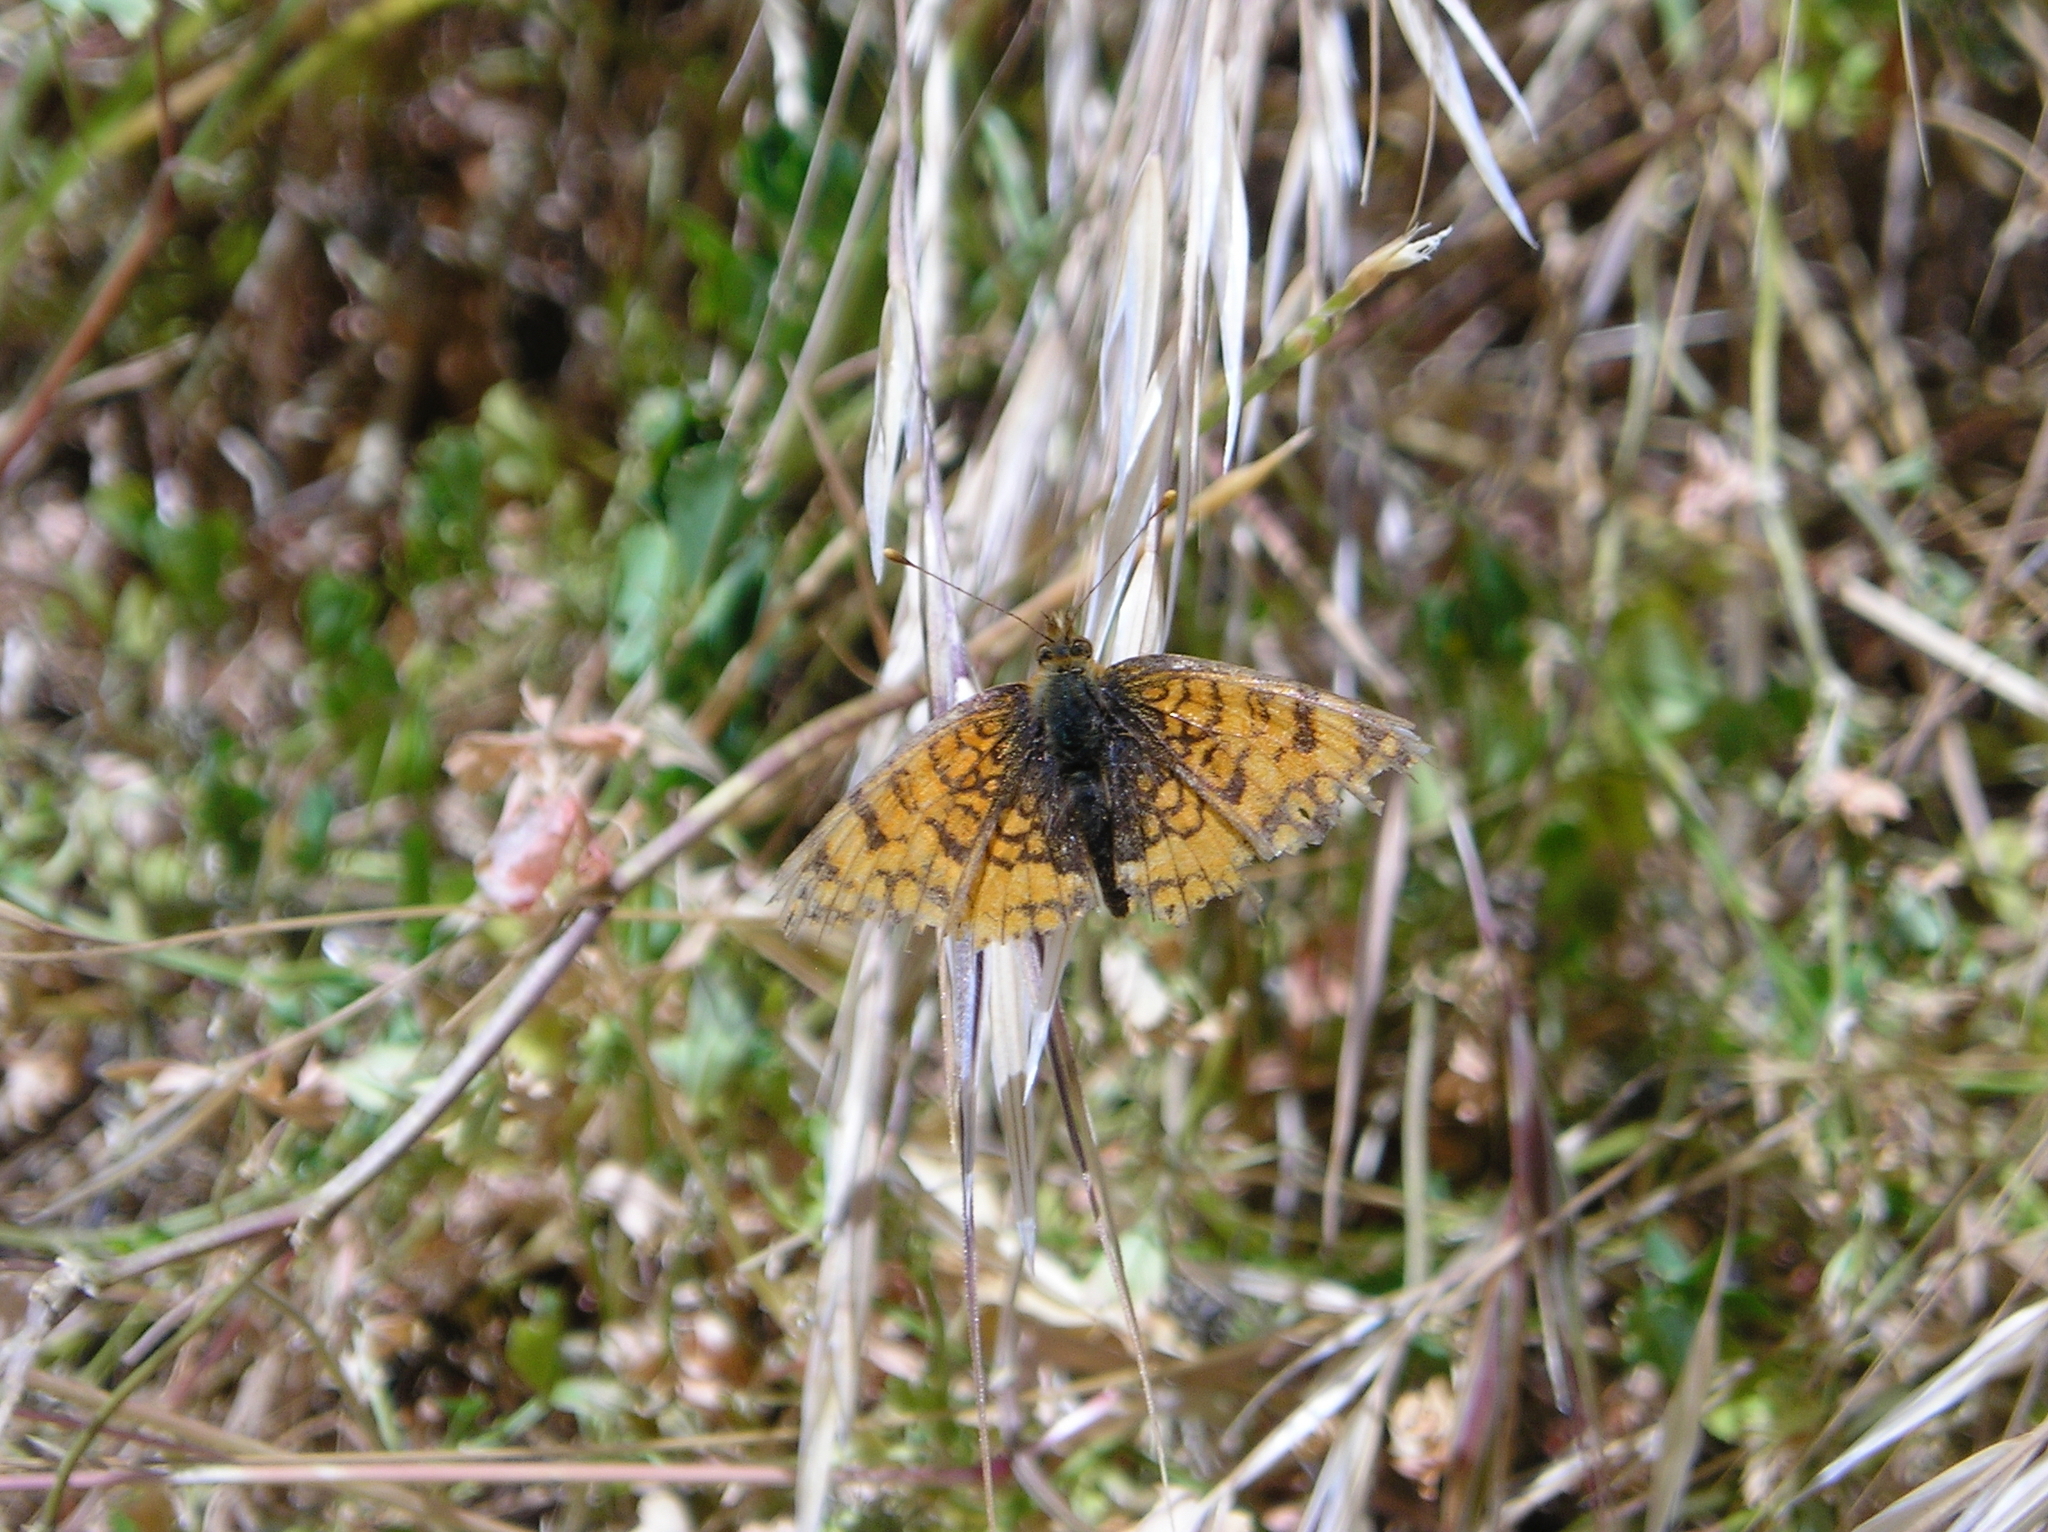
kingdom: Animalia
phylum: Arthropoda
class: Insecta
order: Lepidoptera
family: Nymphalidae
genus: Eresia
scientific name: Eresia aveyrona
